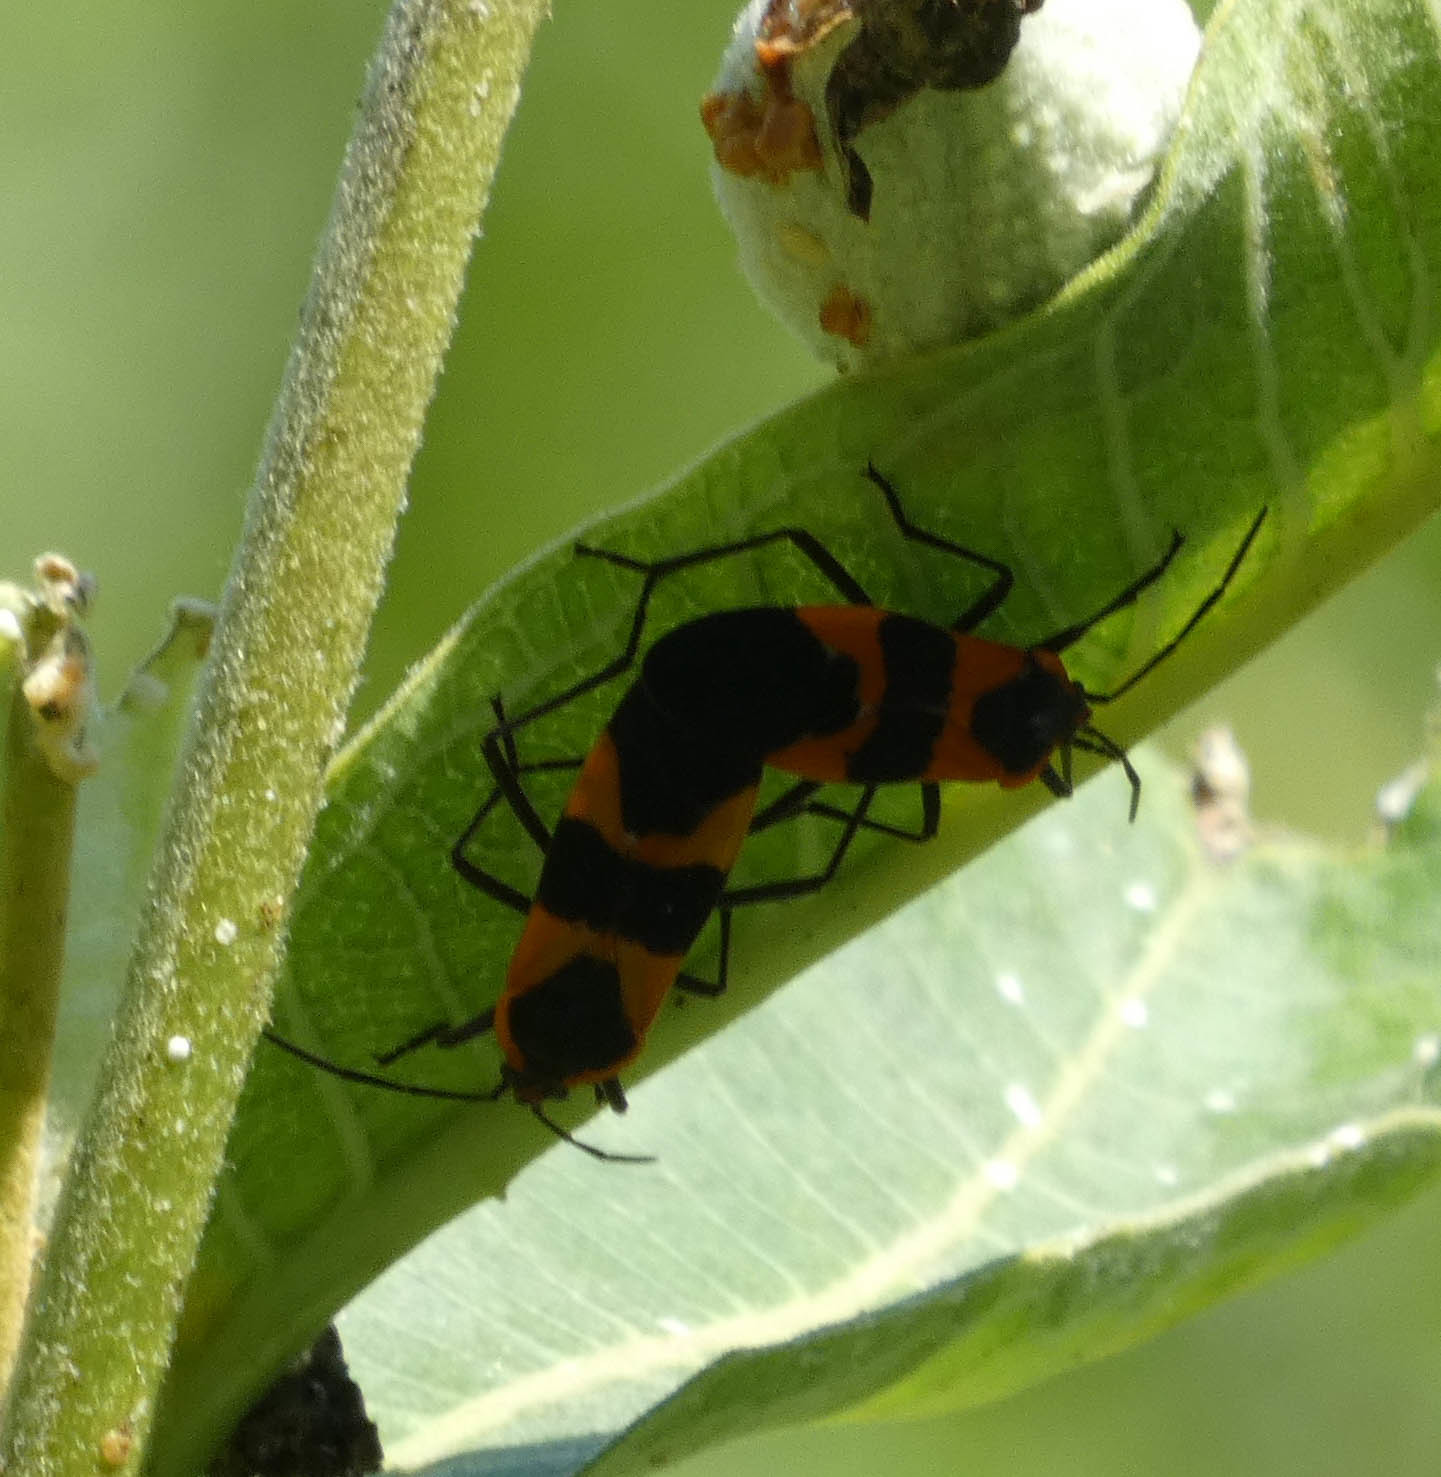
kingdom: Animalia
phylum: Arthropoda
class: Insecta
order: Hemiptera
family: Lygaeidae
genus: Oncopeltus
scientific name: Oncopeltus fasciatus
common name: Large milkweed bug
